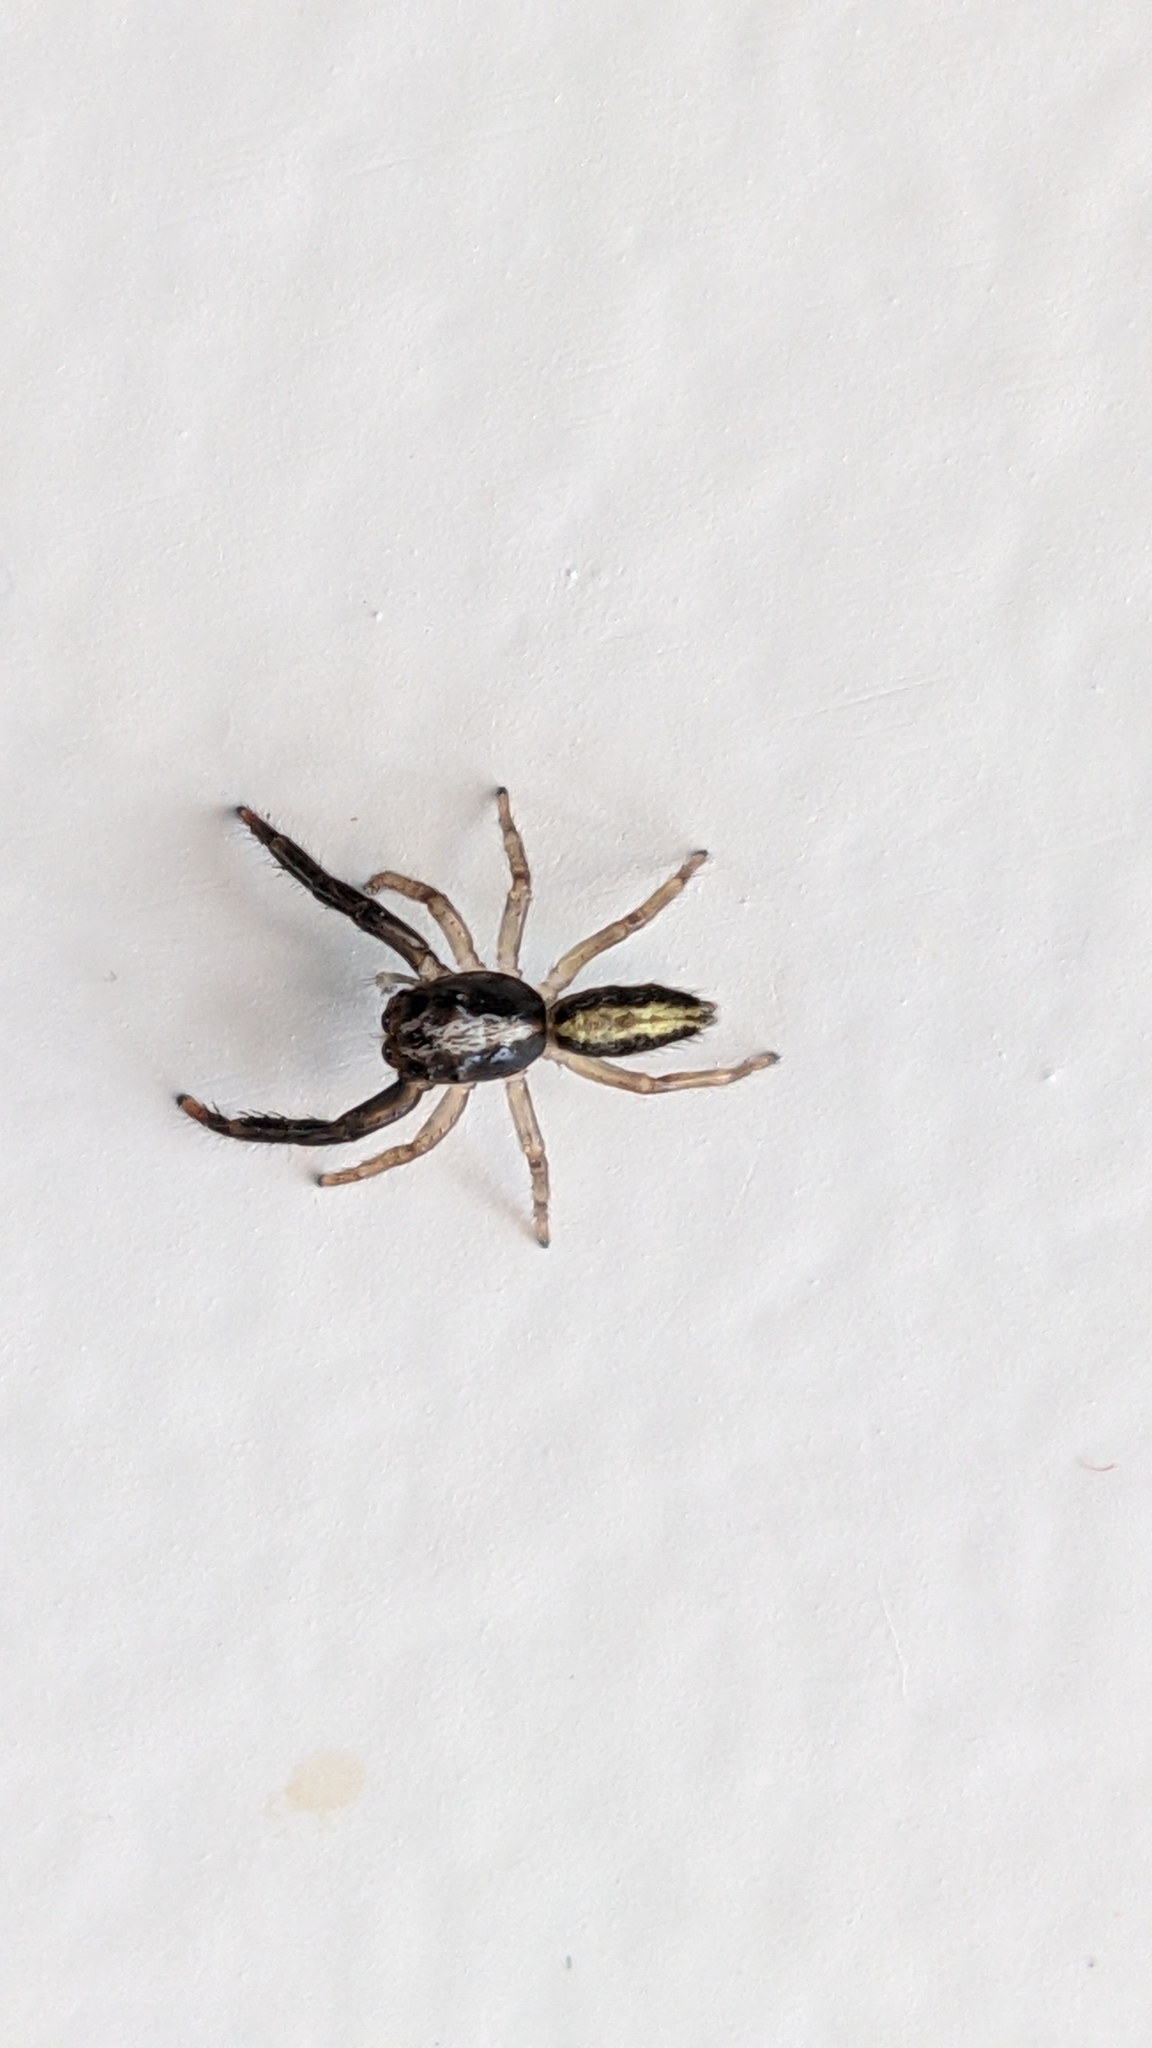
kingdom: Animalia
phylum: Arthropoda
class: Arachnida
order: Araneae
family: Salticidae
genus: Trite
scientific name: Trite planiceps
